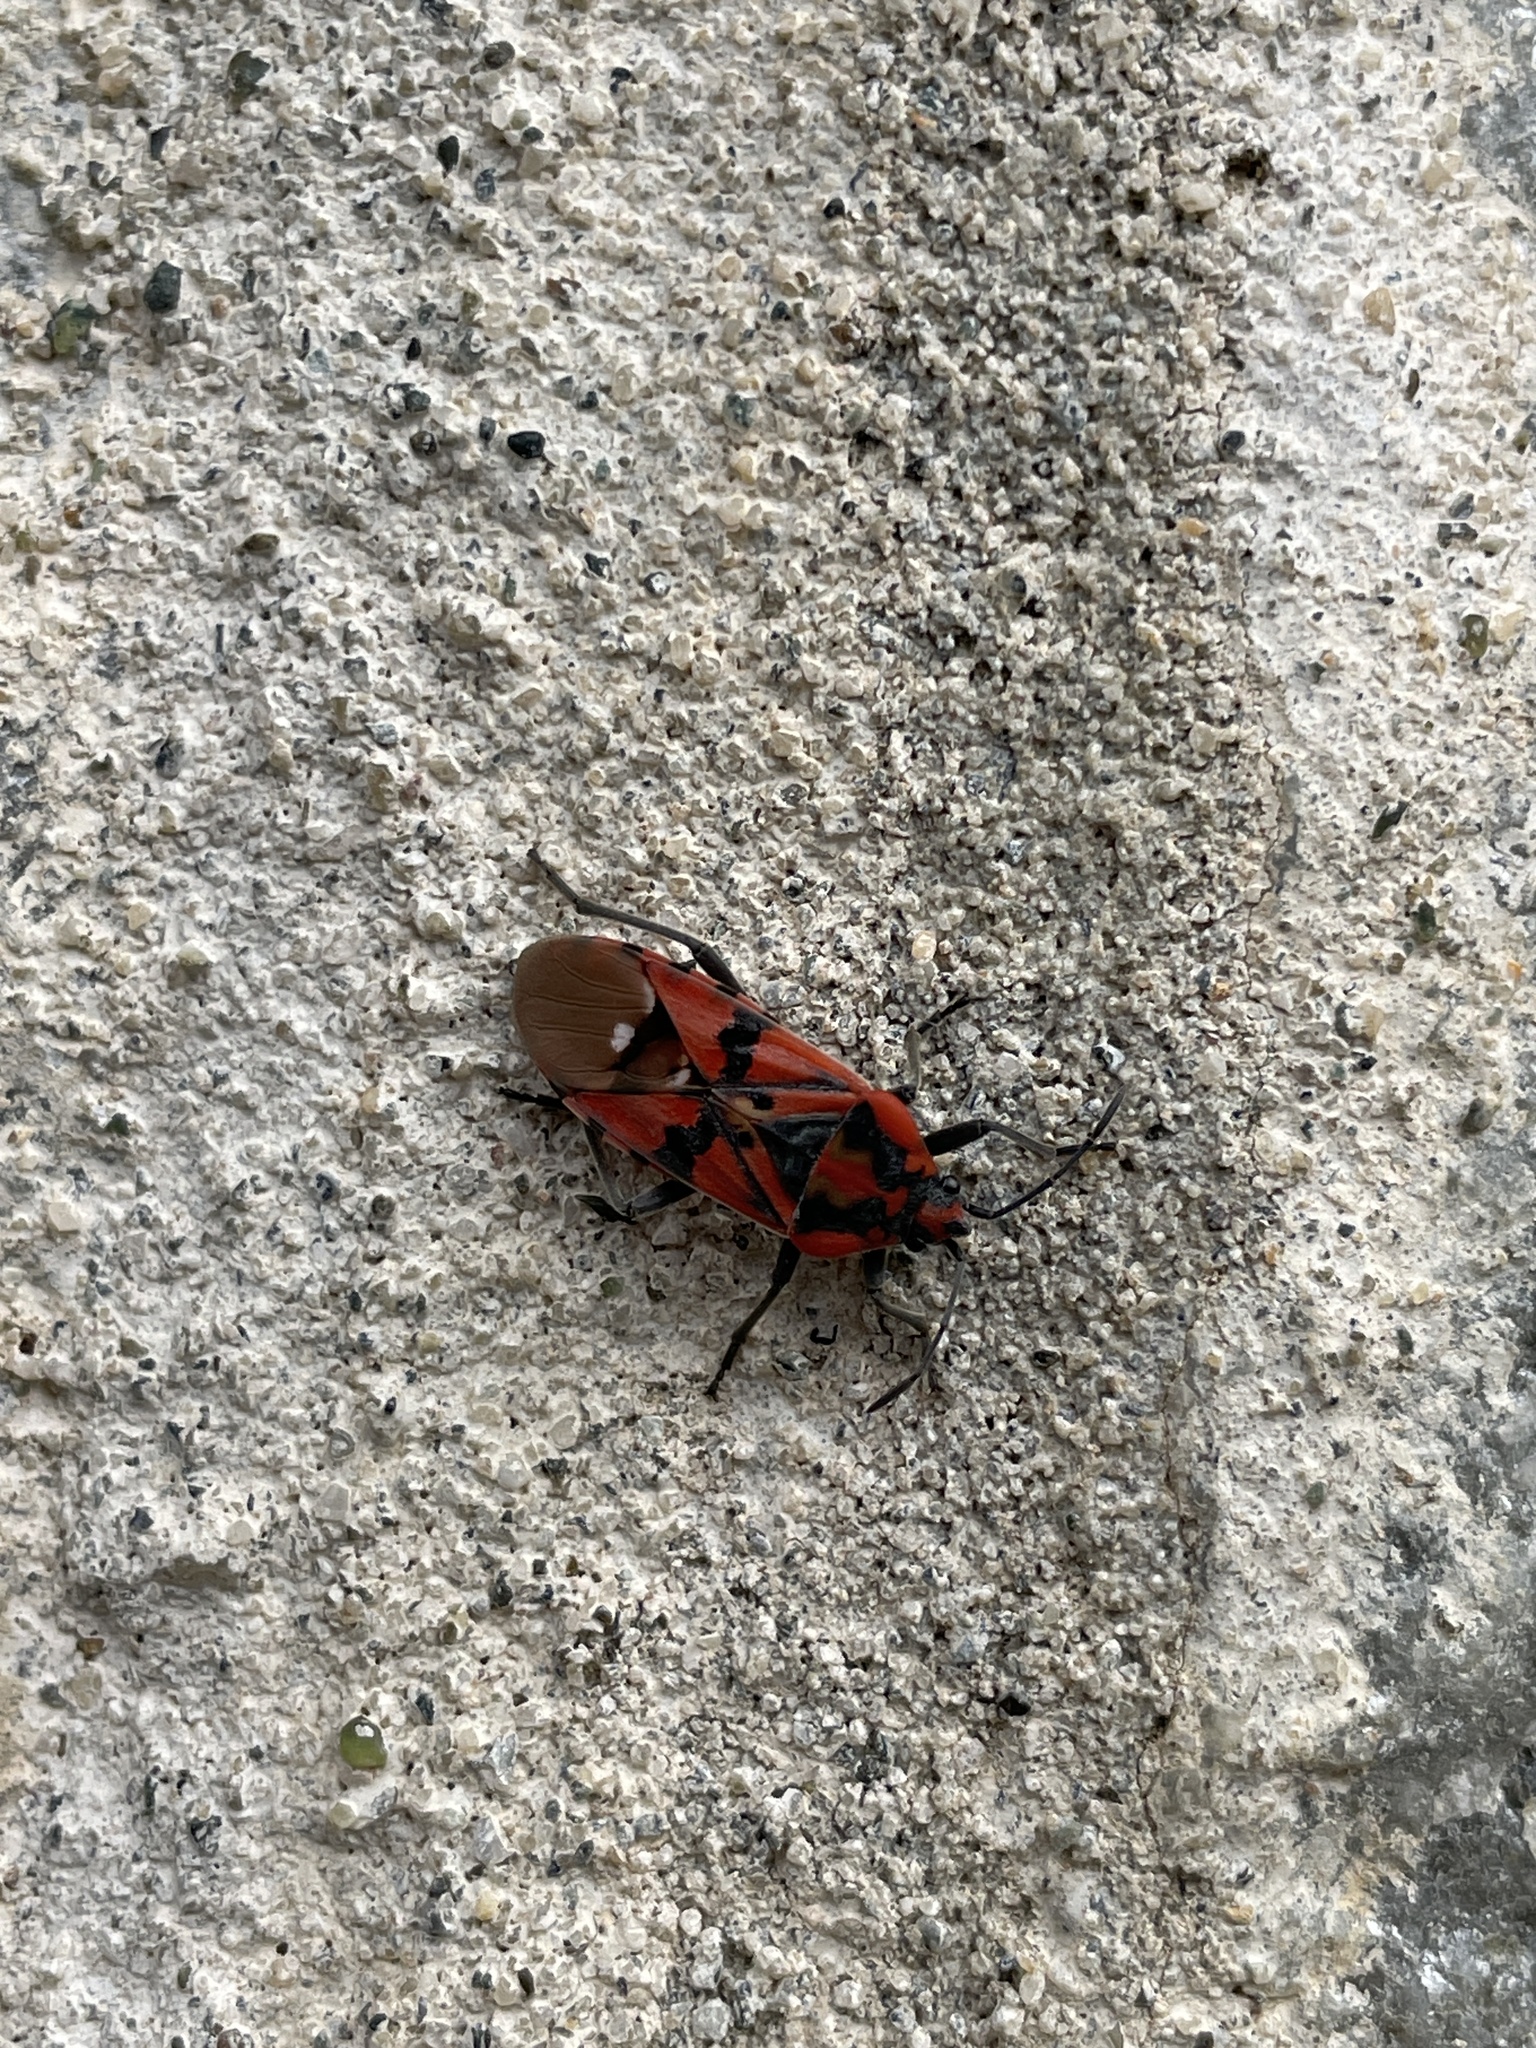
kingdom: Animalia
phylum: Arthropoda
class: Insecta
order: Hemiptera
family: Lygaeidae
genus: Spilostethus
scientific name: Spilostethus pandurus
